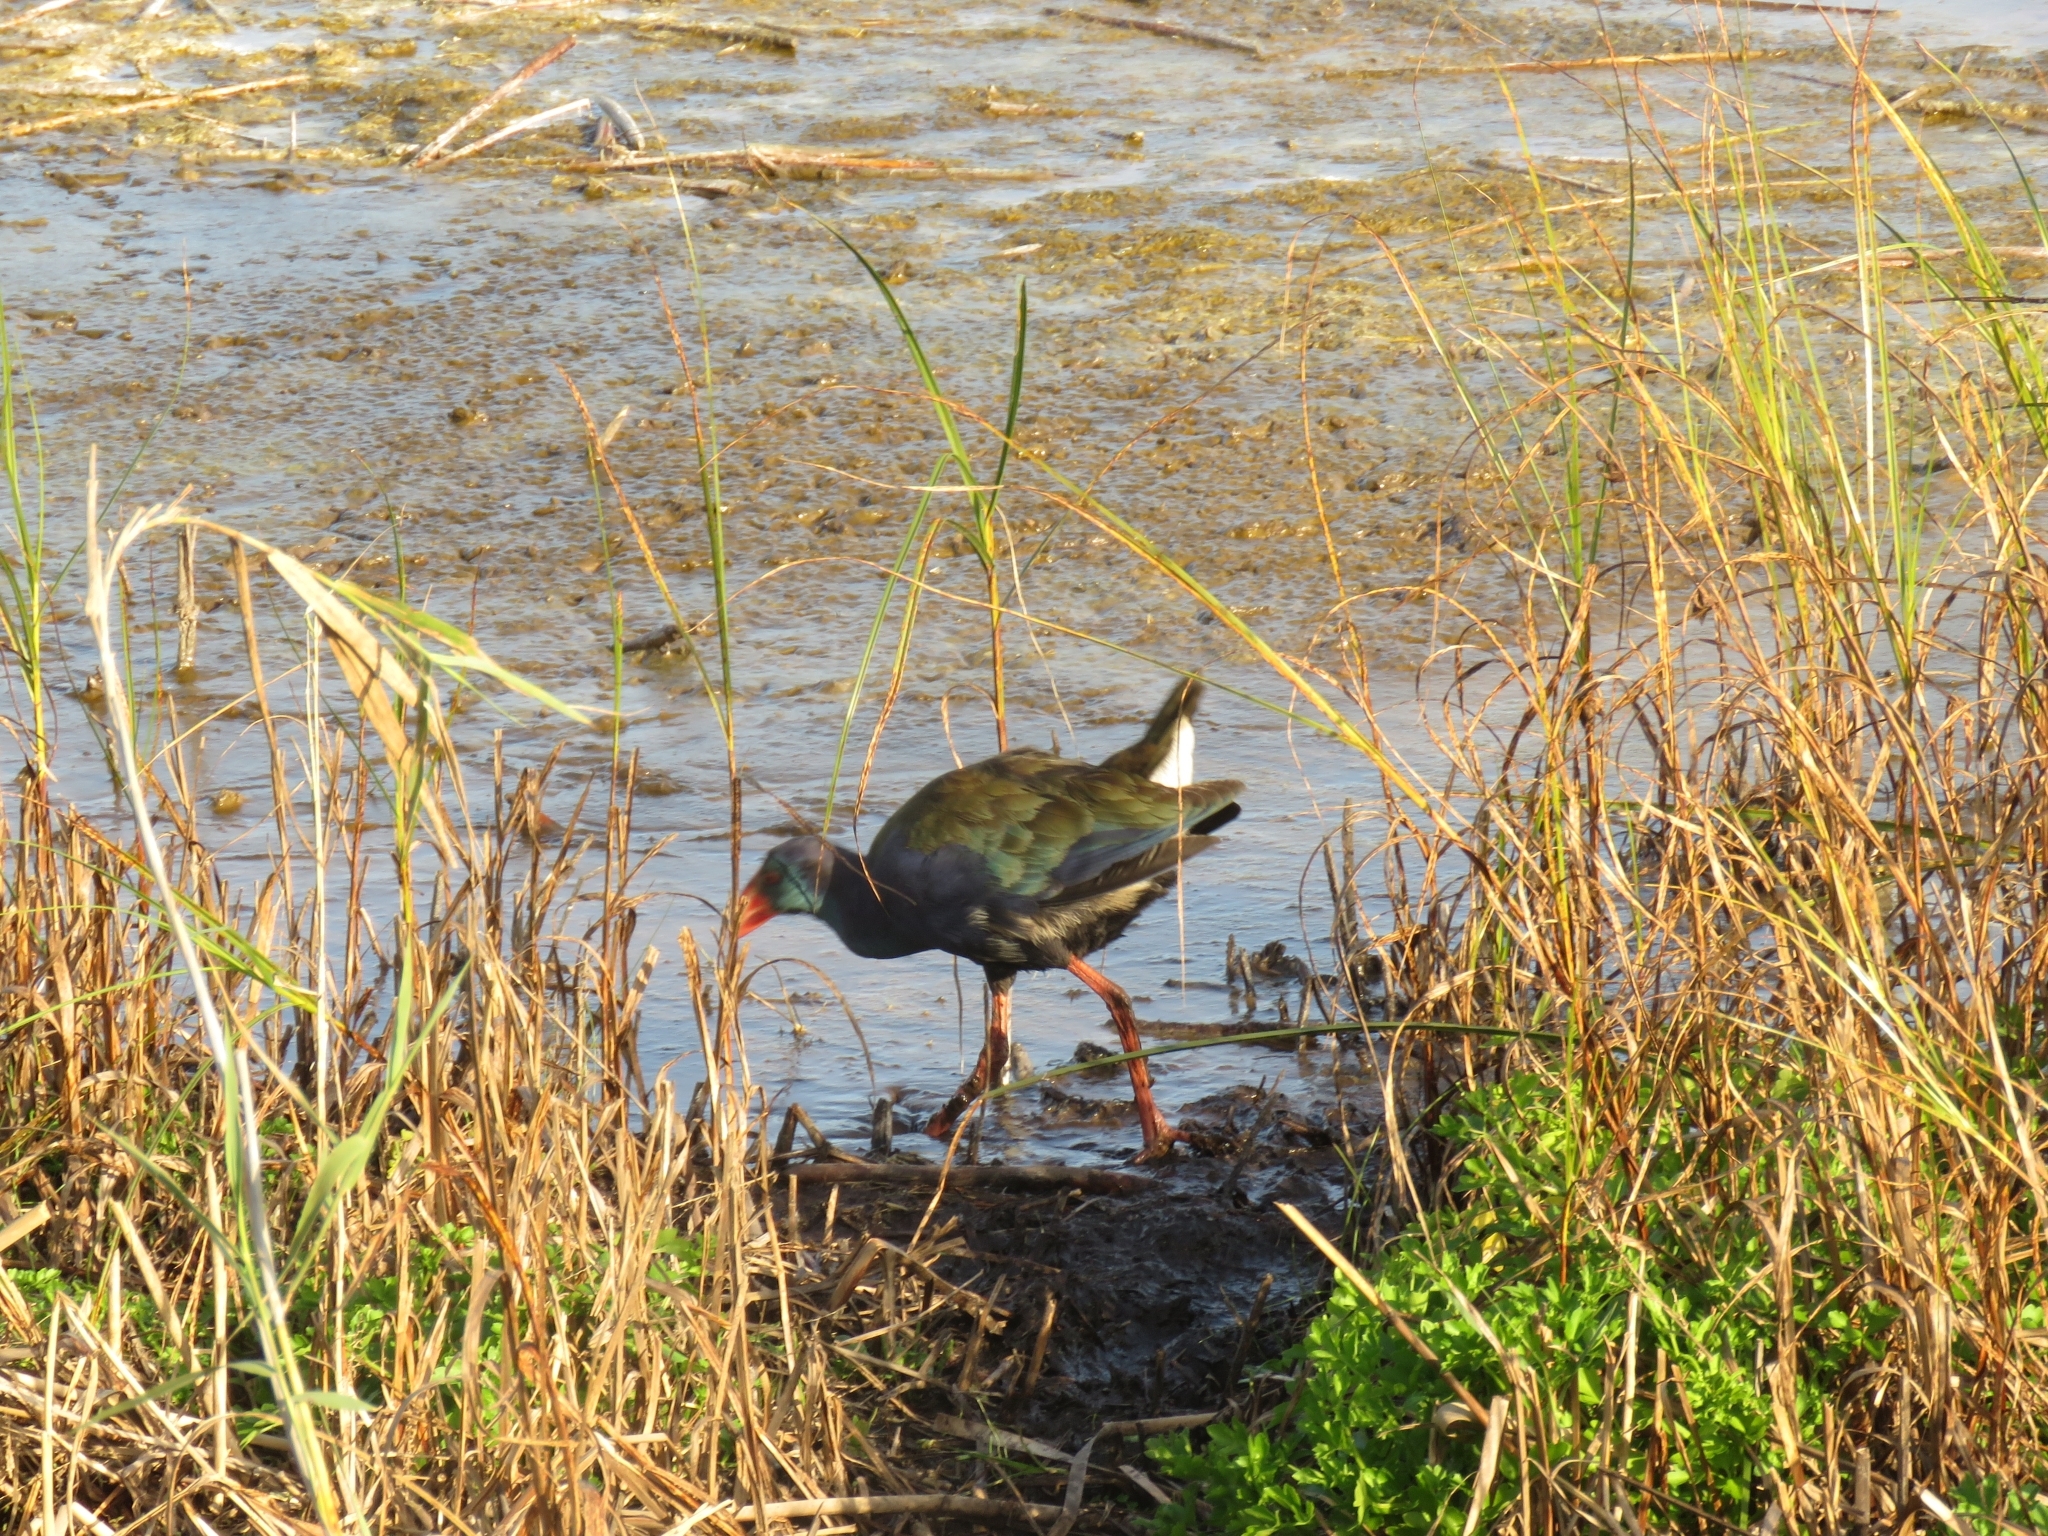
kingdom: Animalia
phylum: Chordata
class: Aves
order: Gruiformes
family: Rallidae
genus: Porphyrio
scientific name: Porphyrio porphyrio
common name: Purple swamphen
